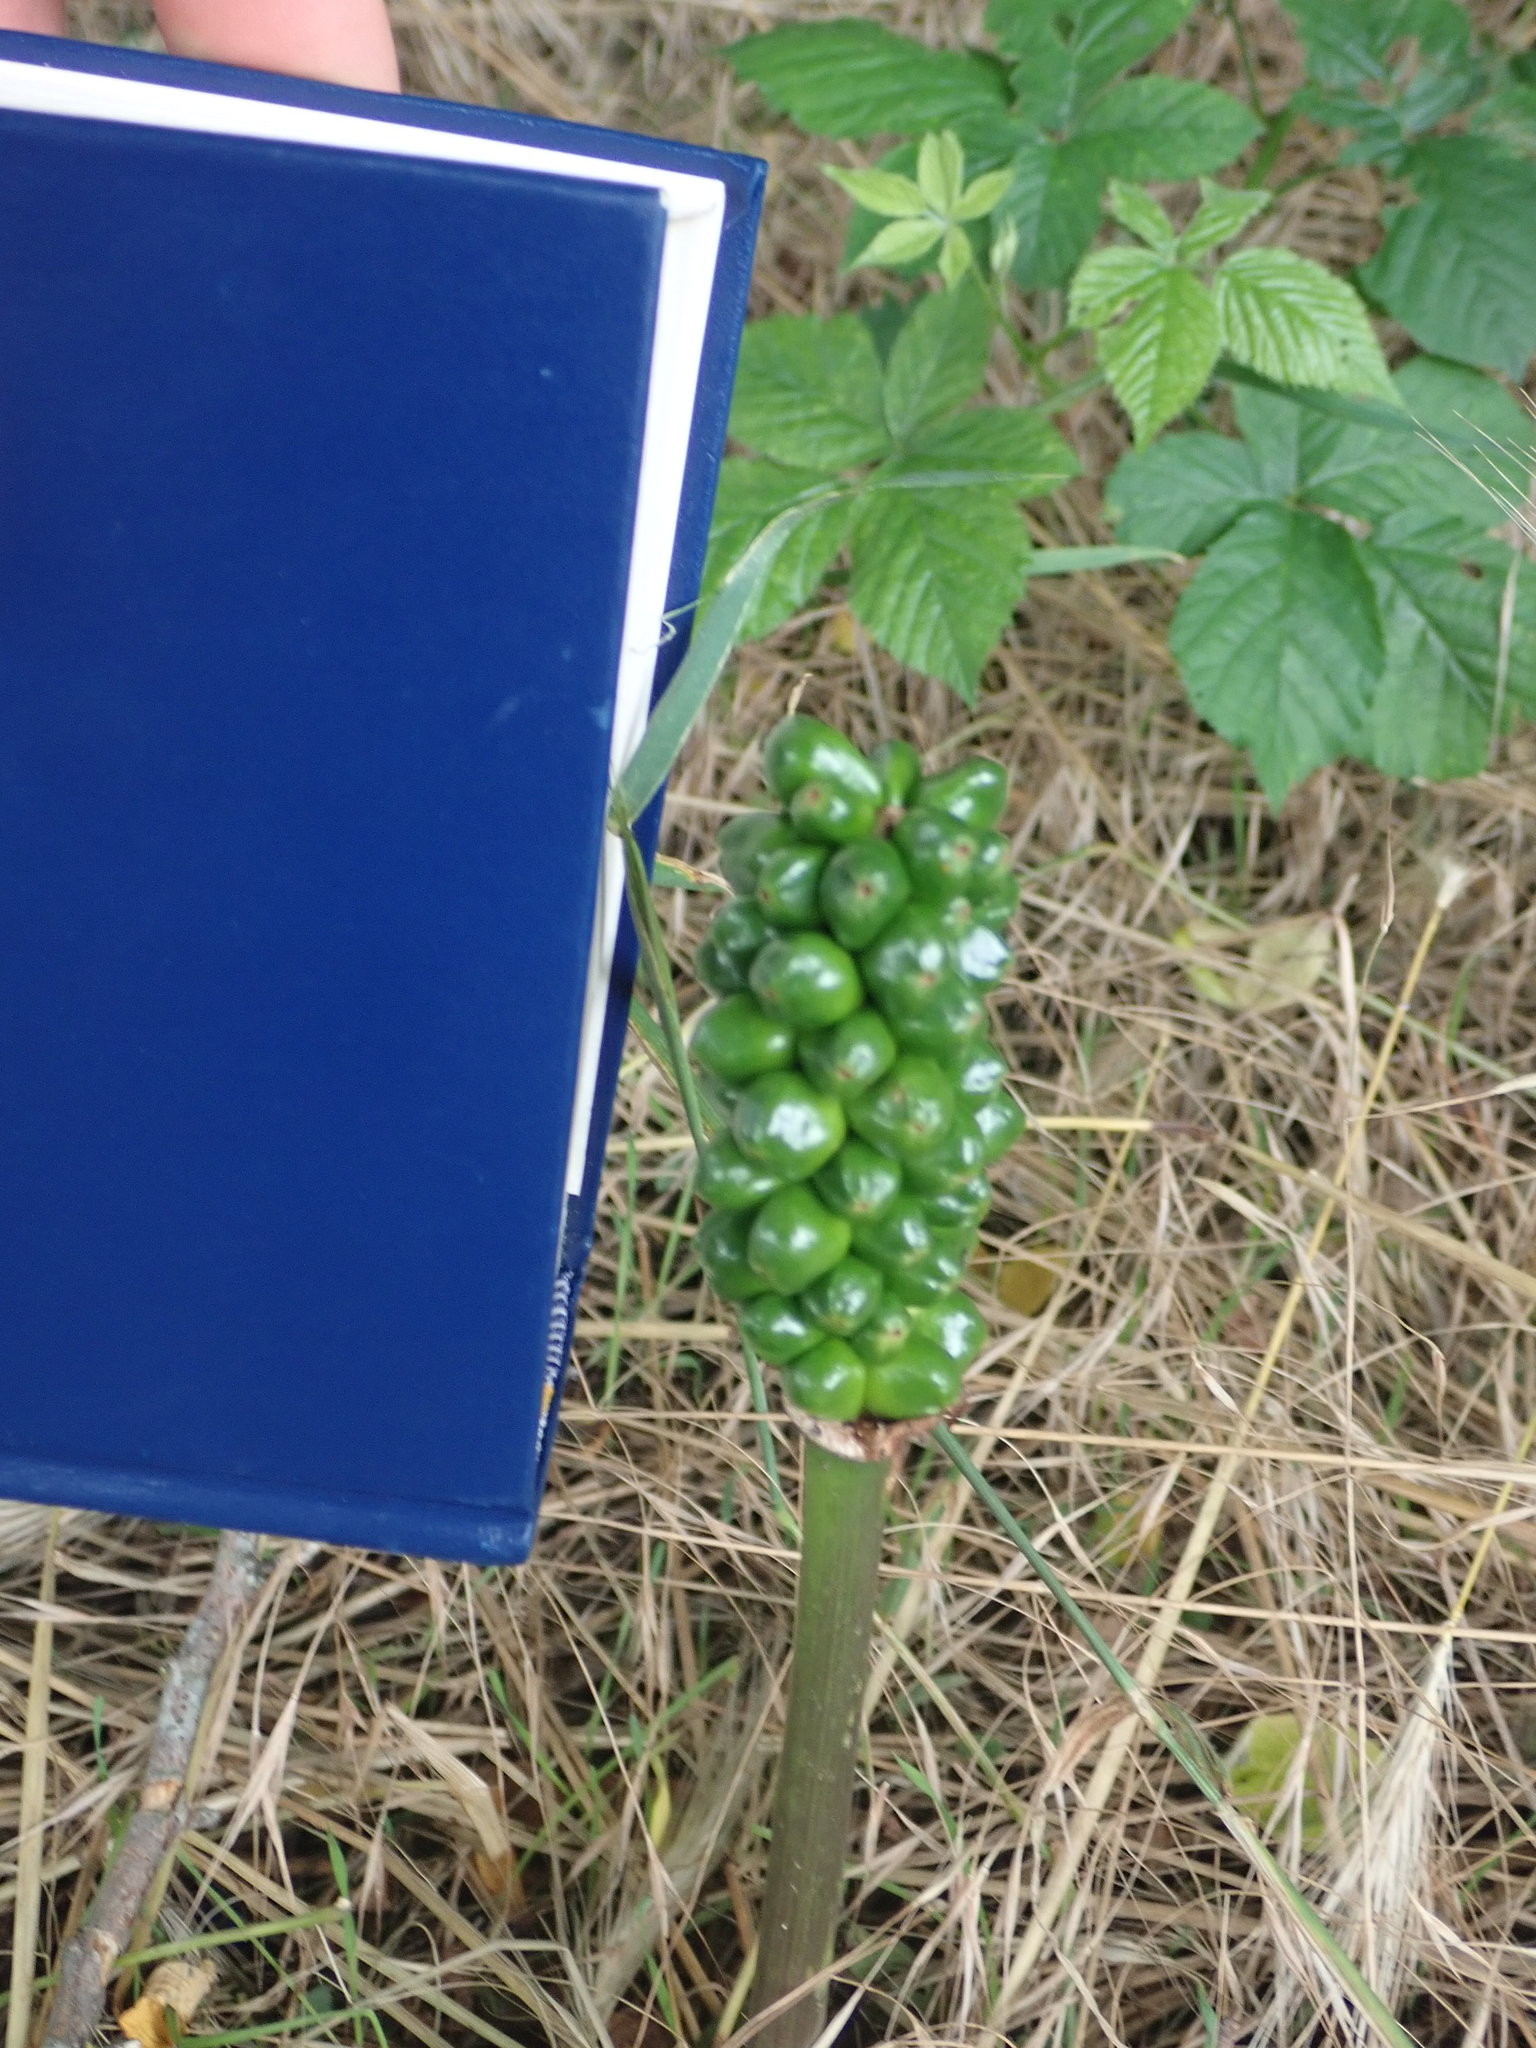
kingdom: Plantae
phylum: Tracheophyta
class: Liliopsida
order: Alismatales
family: Araceae
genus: Arum
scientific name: Arum
